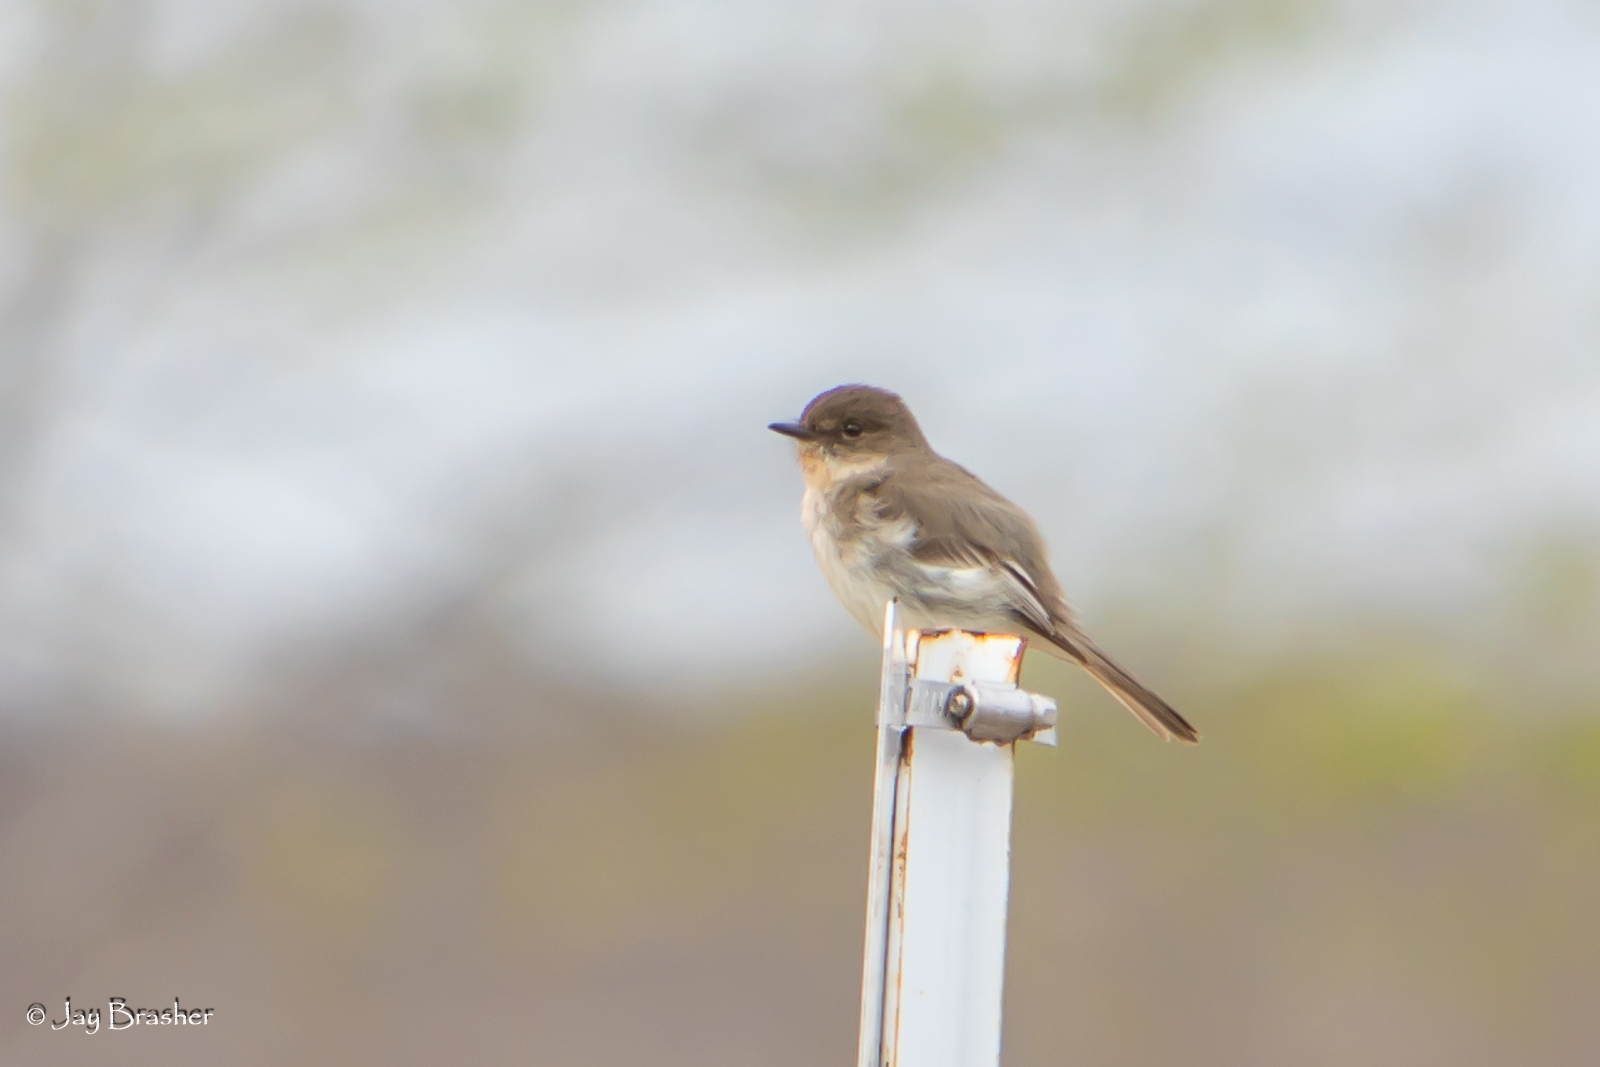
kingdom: Animalia
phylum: Chordata
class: Aves
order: Passeriformes
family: Tyrannidae
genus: Sayornis
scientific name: Sayornis phoebe
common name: Eastern phoebe
